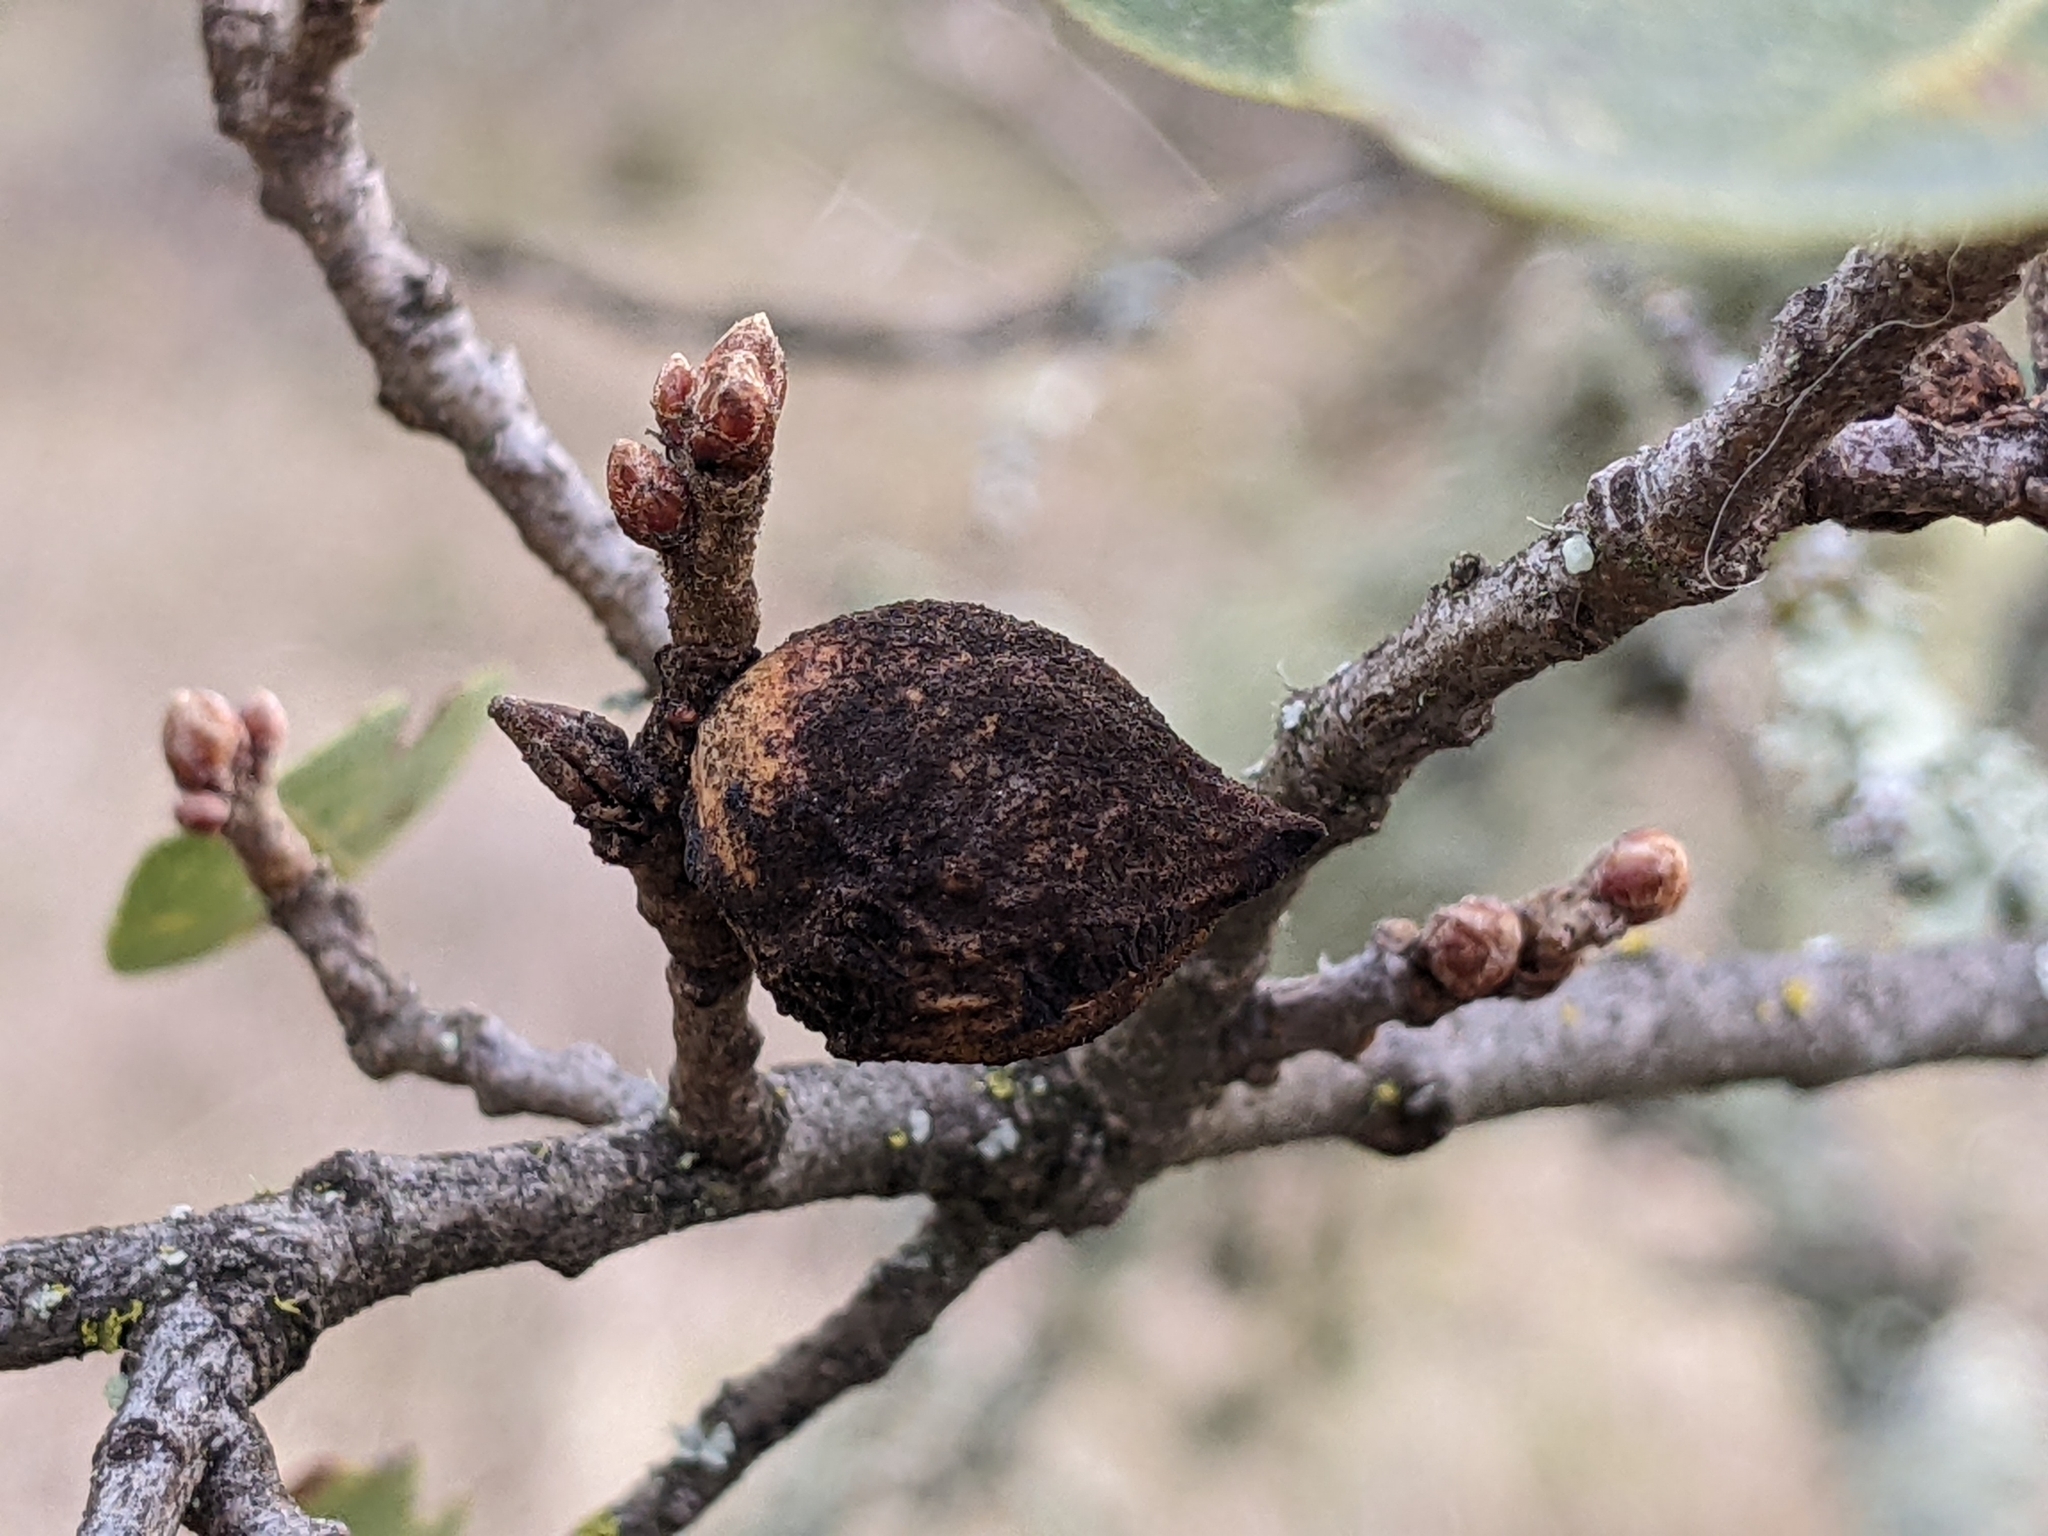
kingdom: Plantae
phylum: Tracheophyta
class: Magnoliopsida
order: Fagales
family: Fagaceae
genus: Quercus
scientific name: Quercus berberidifolia
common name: California scrub oak
